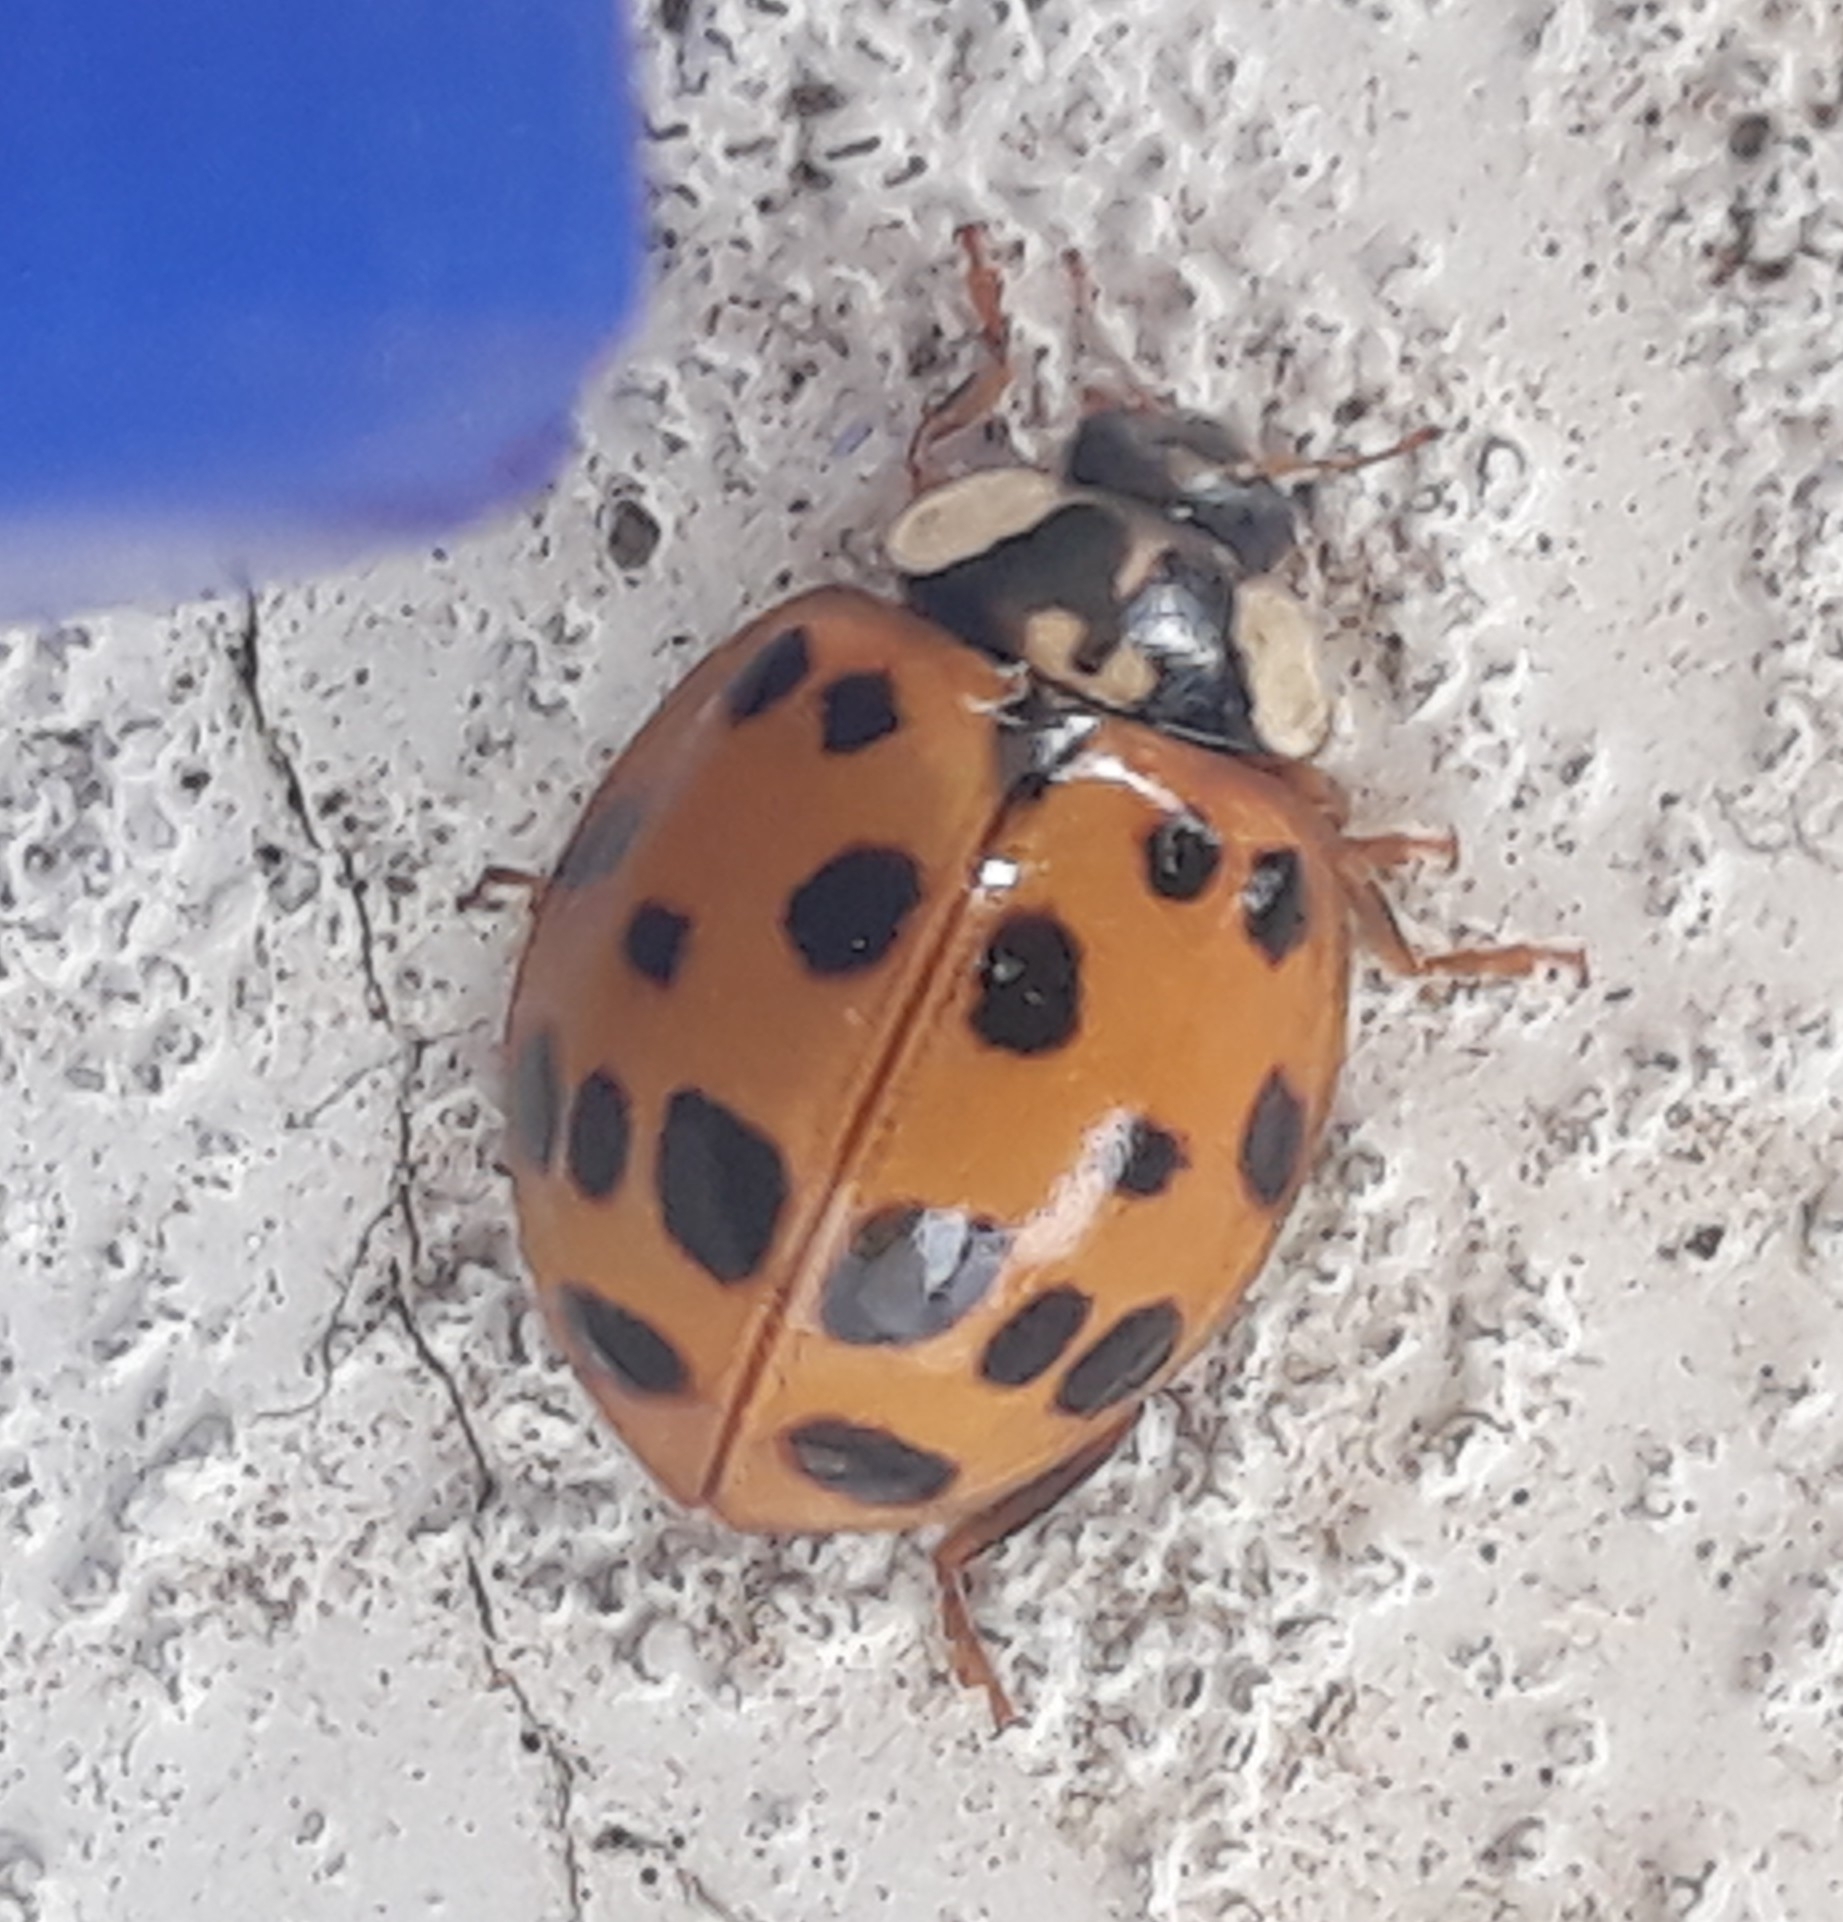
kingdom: Animalia
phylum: Arthropoda
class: Insecta
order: Coleoptera
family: Coccinellidae
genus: Harmonia
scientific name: Harmonia axyridis
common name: Harlequin ladybird
